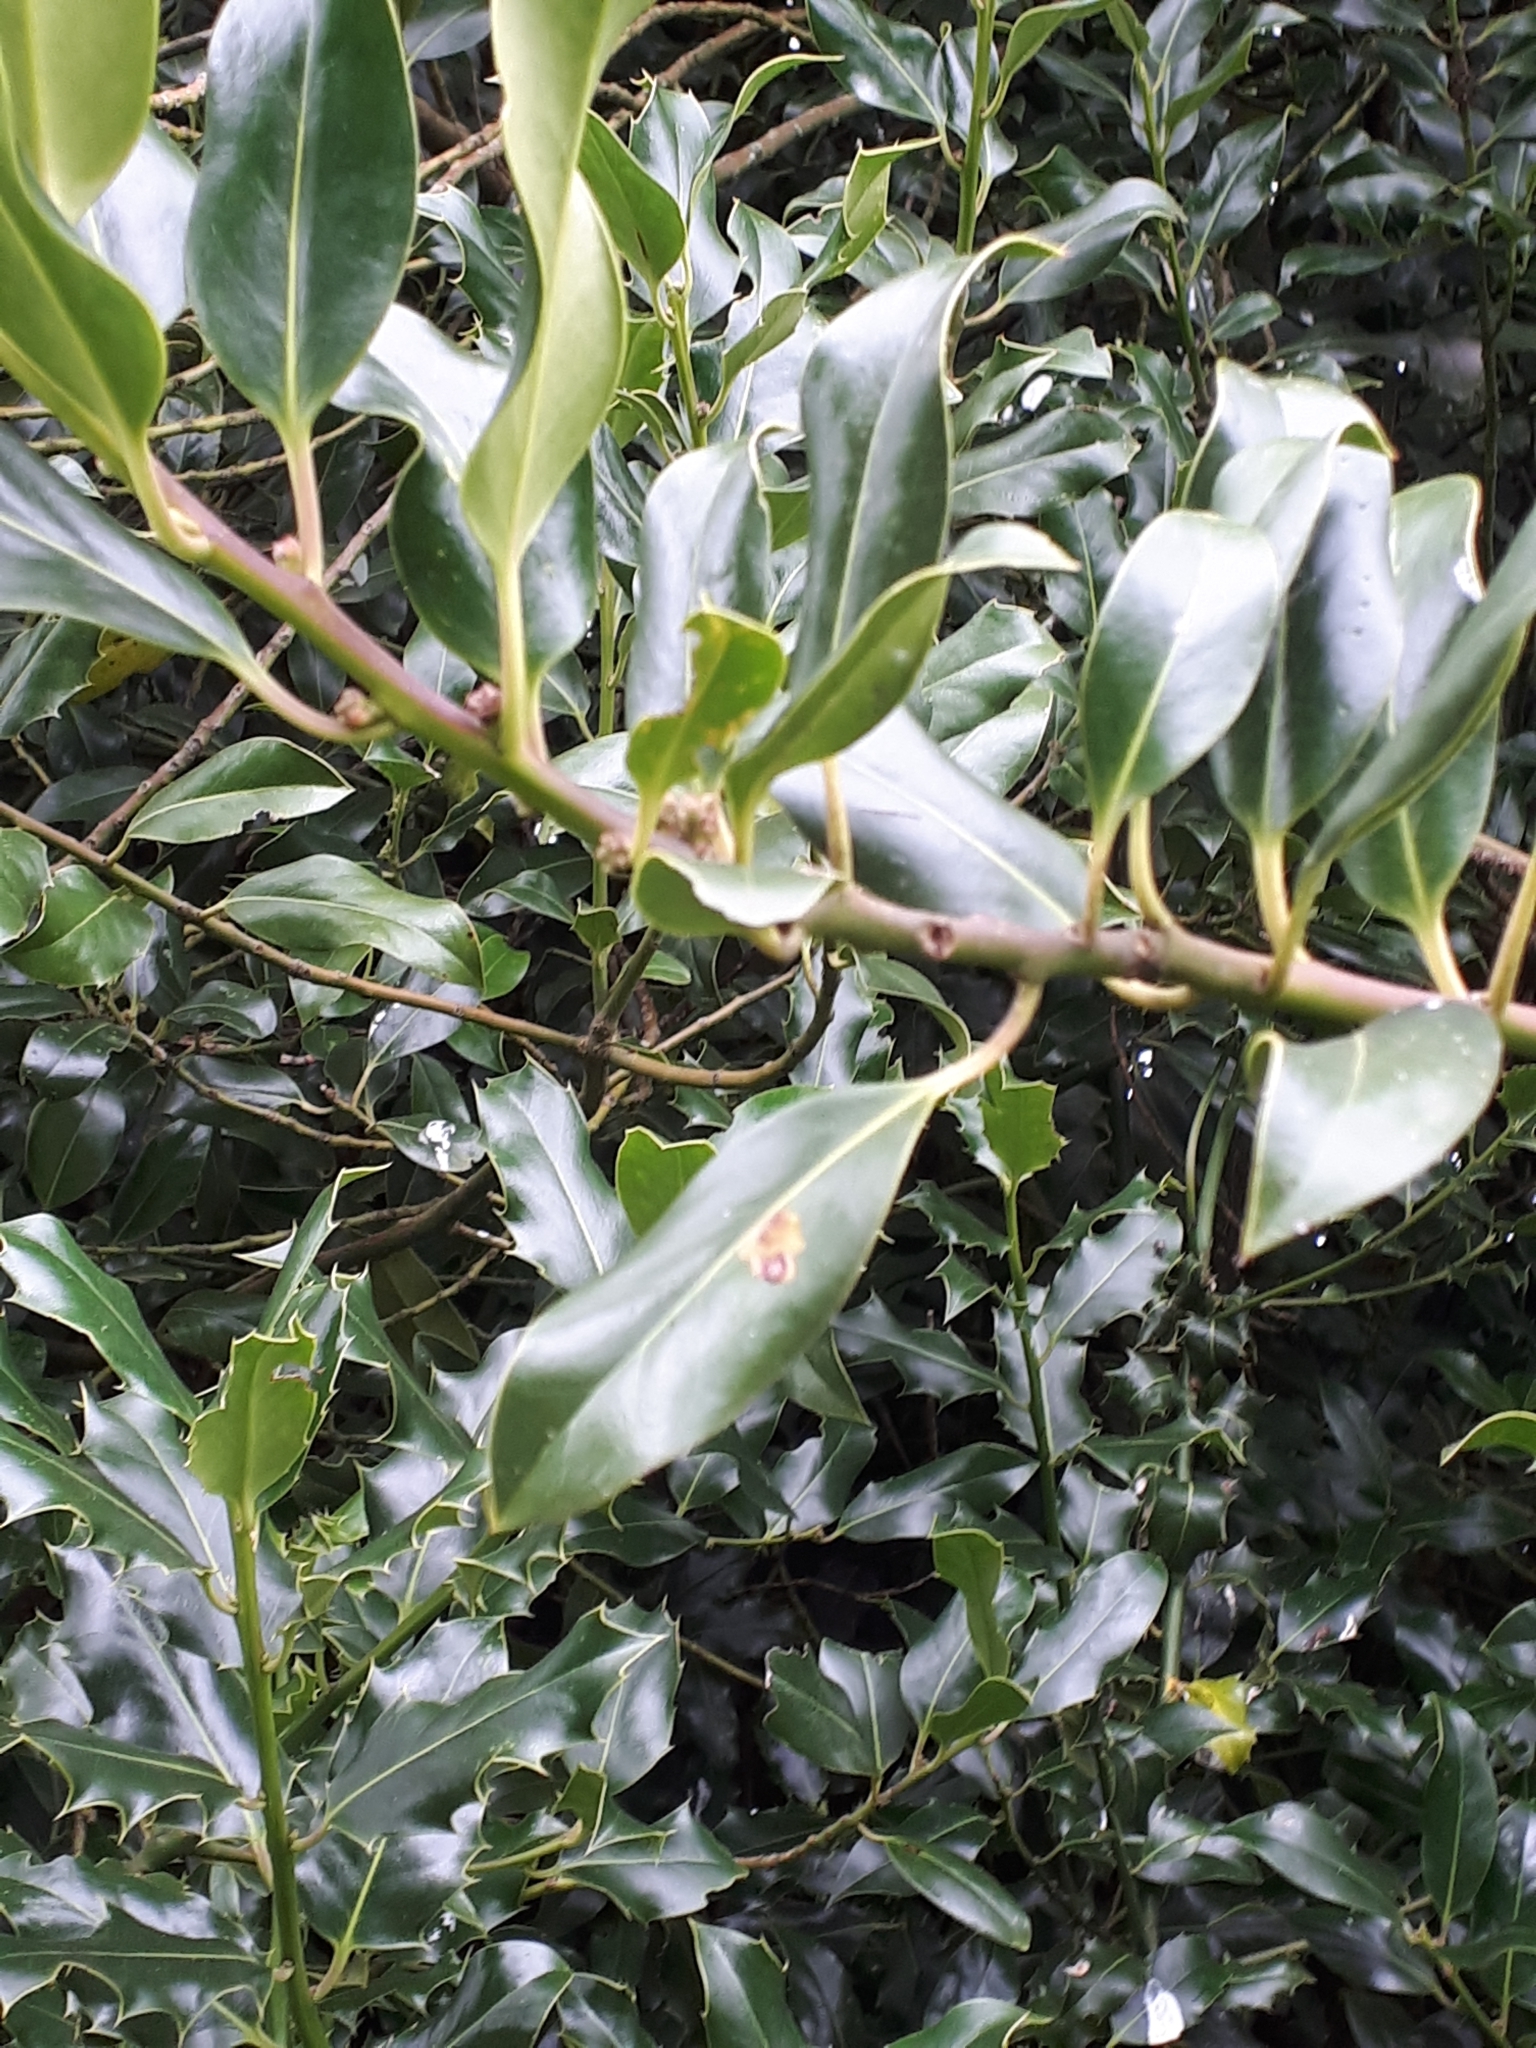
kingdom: Plantae
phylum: Tracheophyta
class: Magnoliopsida
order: Aquifoliales
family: Aquifoliaceae
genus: Ilex
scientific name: Ilex aquifolium
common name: English holly
